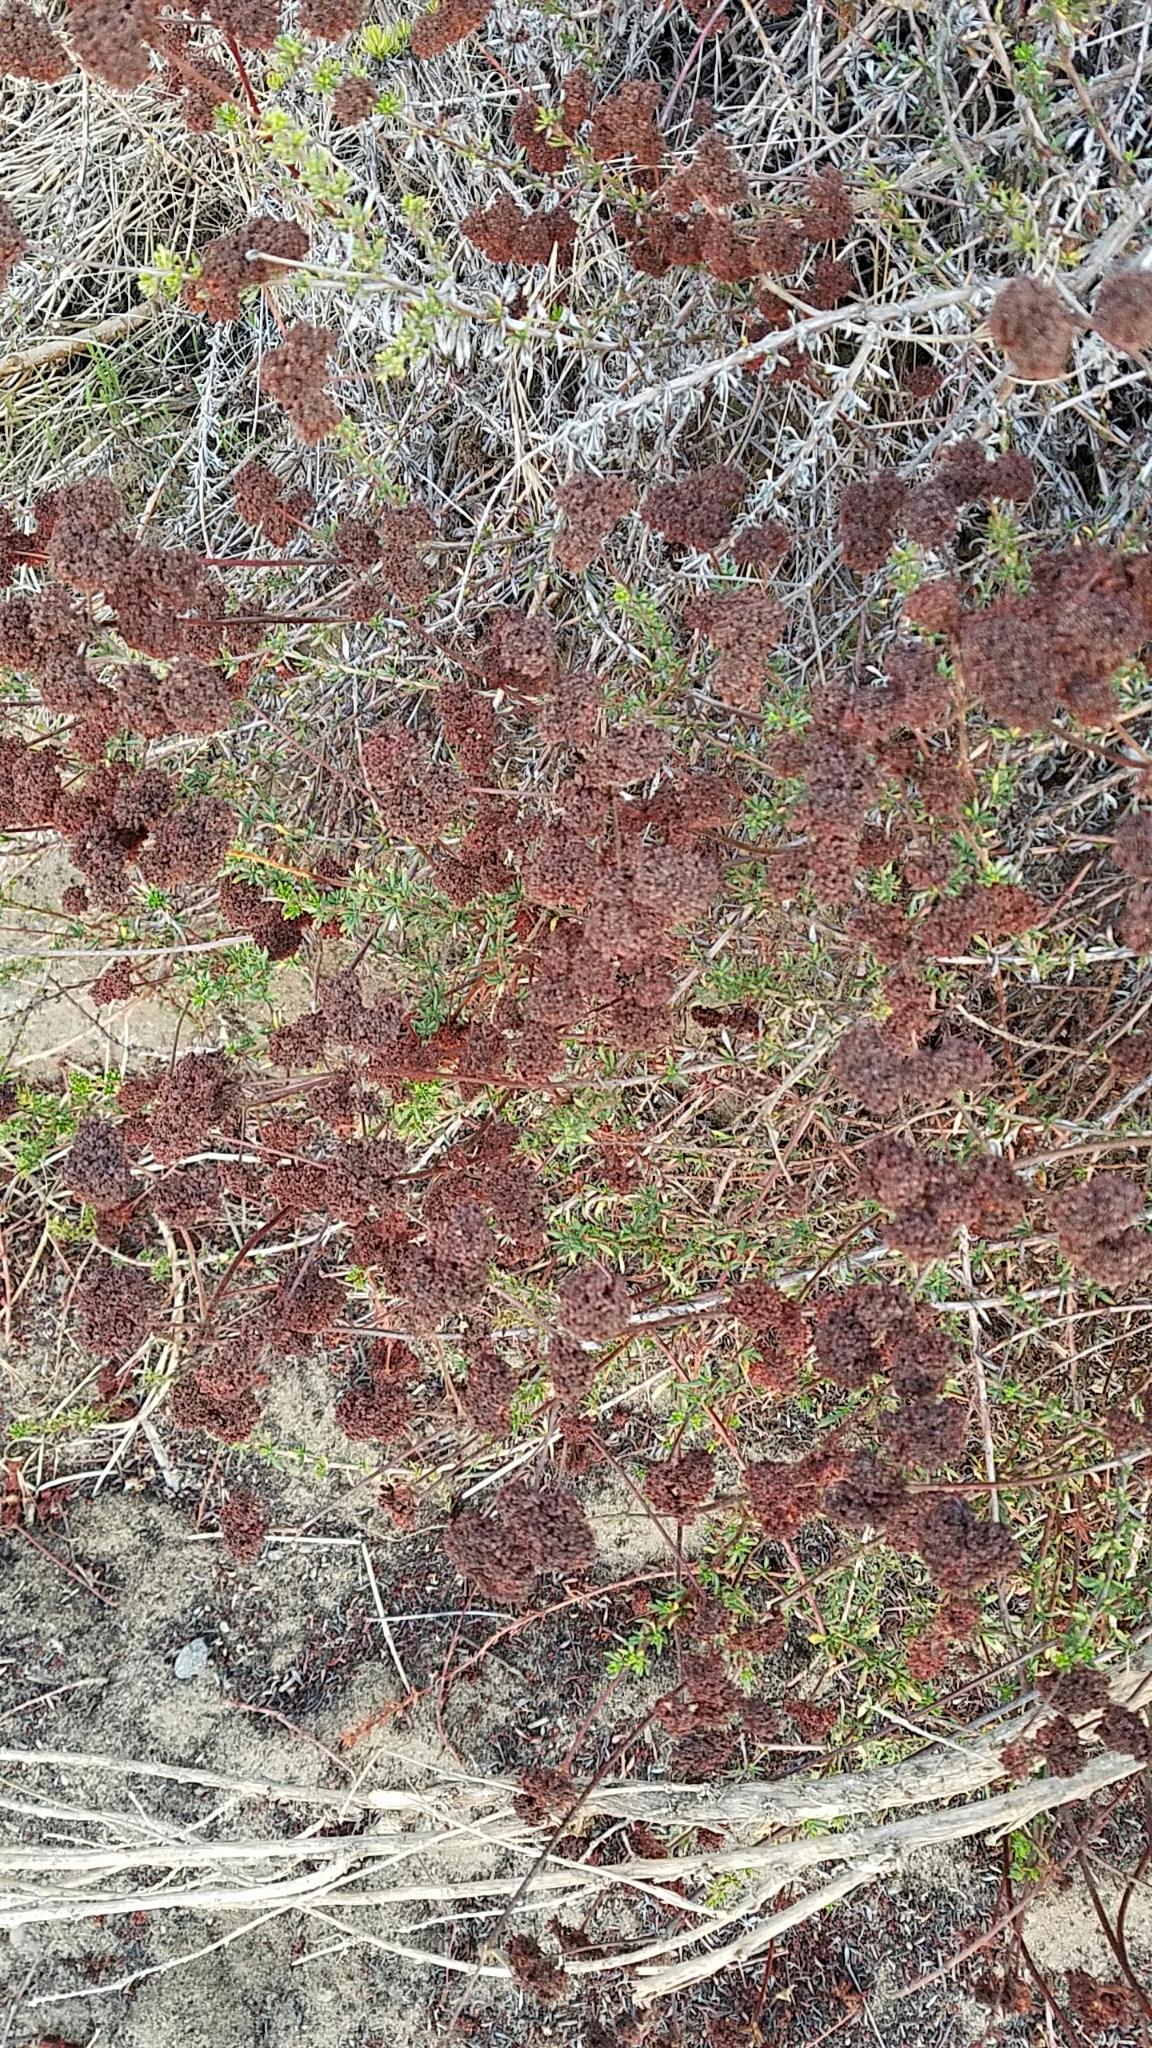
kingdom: Plantae
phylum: Tracheophyta
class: Magnoliopsida
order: Caryophyllales
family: Polygonaceae
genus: Eriogonum
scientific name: Eriogonum fasciculatum
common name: California wild buckwheat
